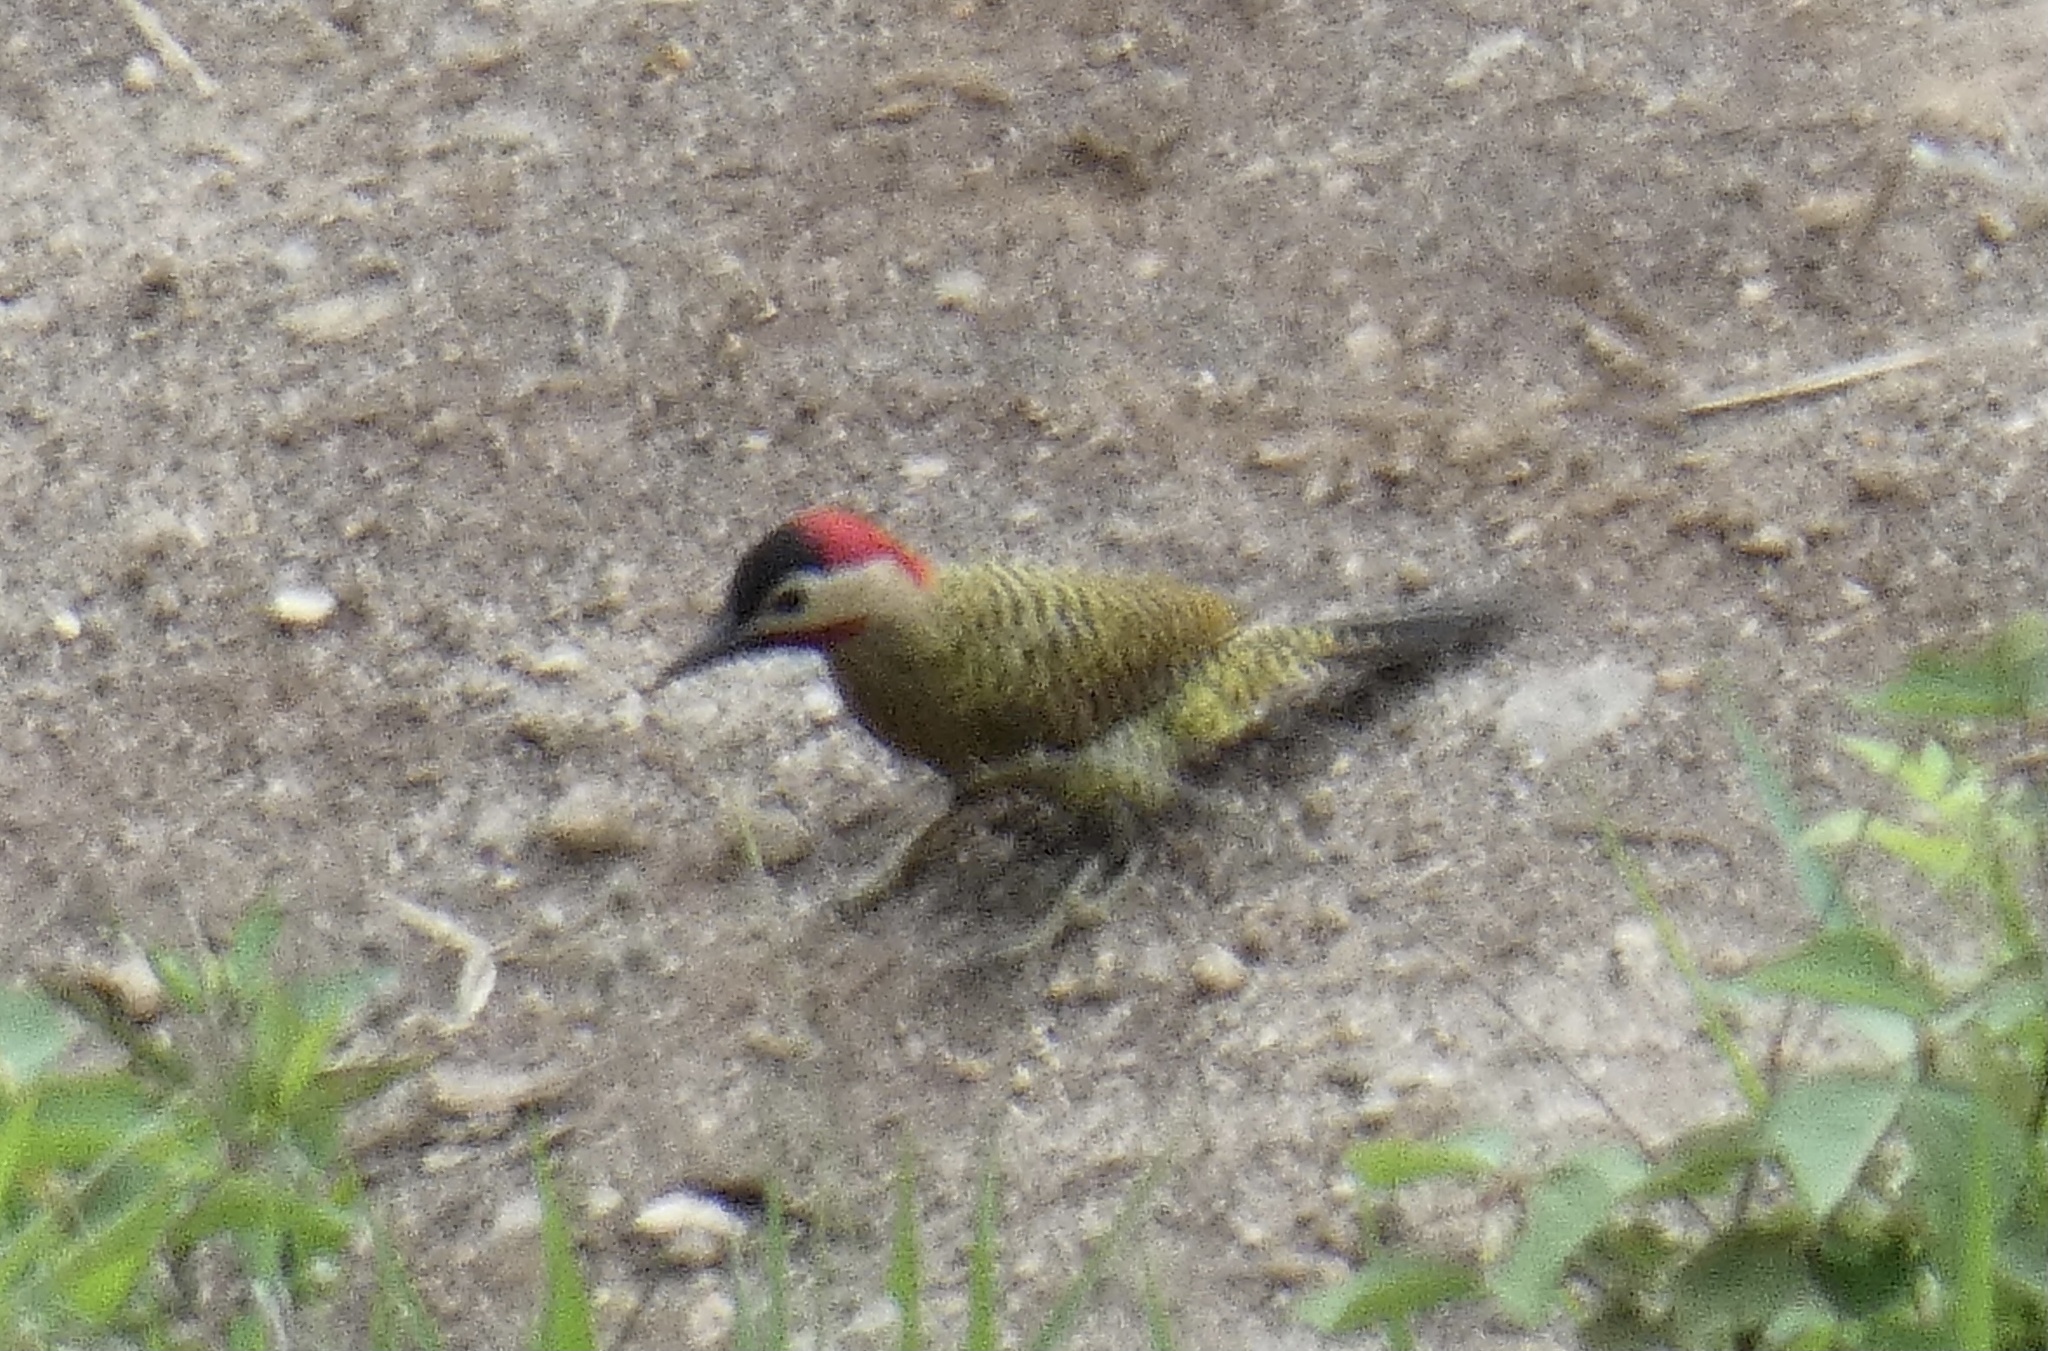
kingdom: Animalia
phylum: Chordata
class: Aves
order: Piciformes
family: Picidae
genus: Colaptes
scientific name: Colaptes melanochloros
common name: Green-barred woodpecker
